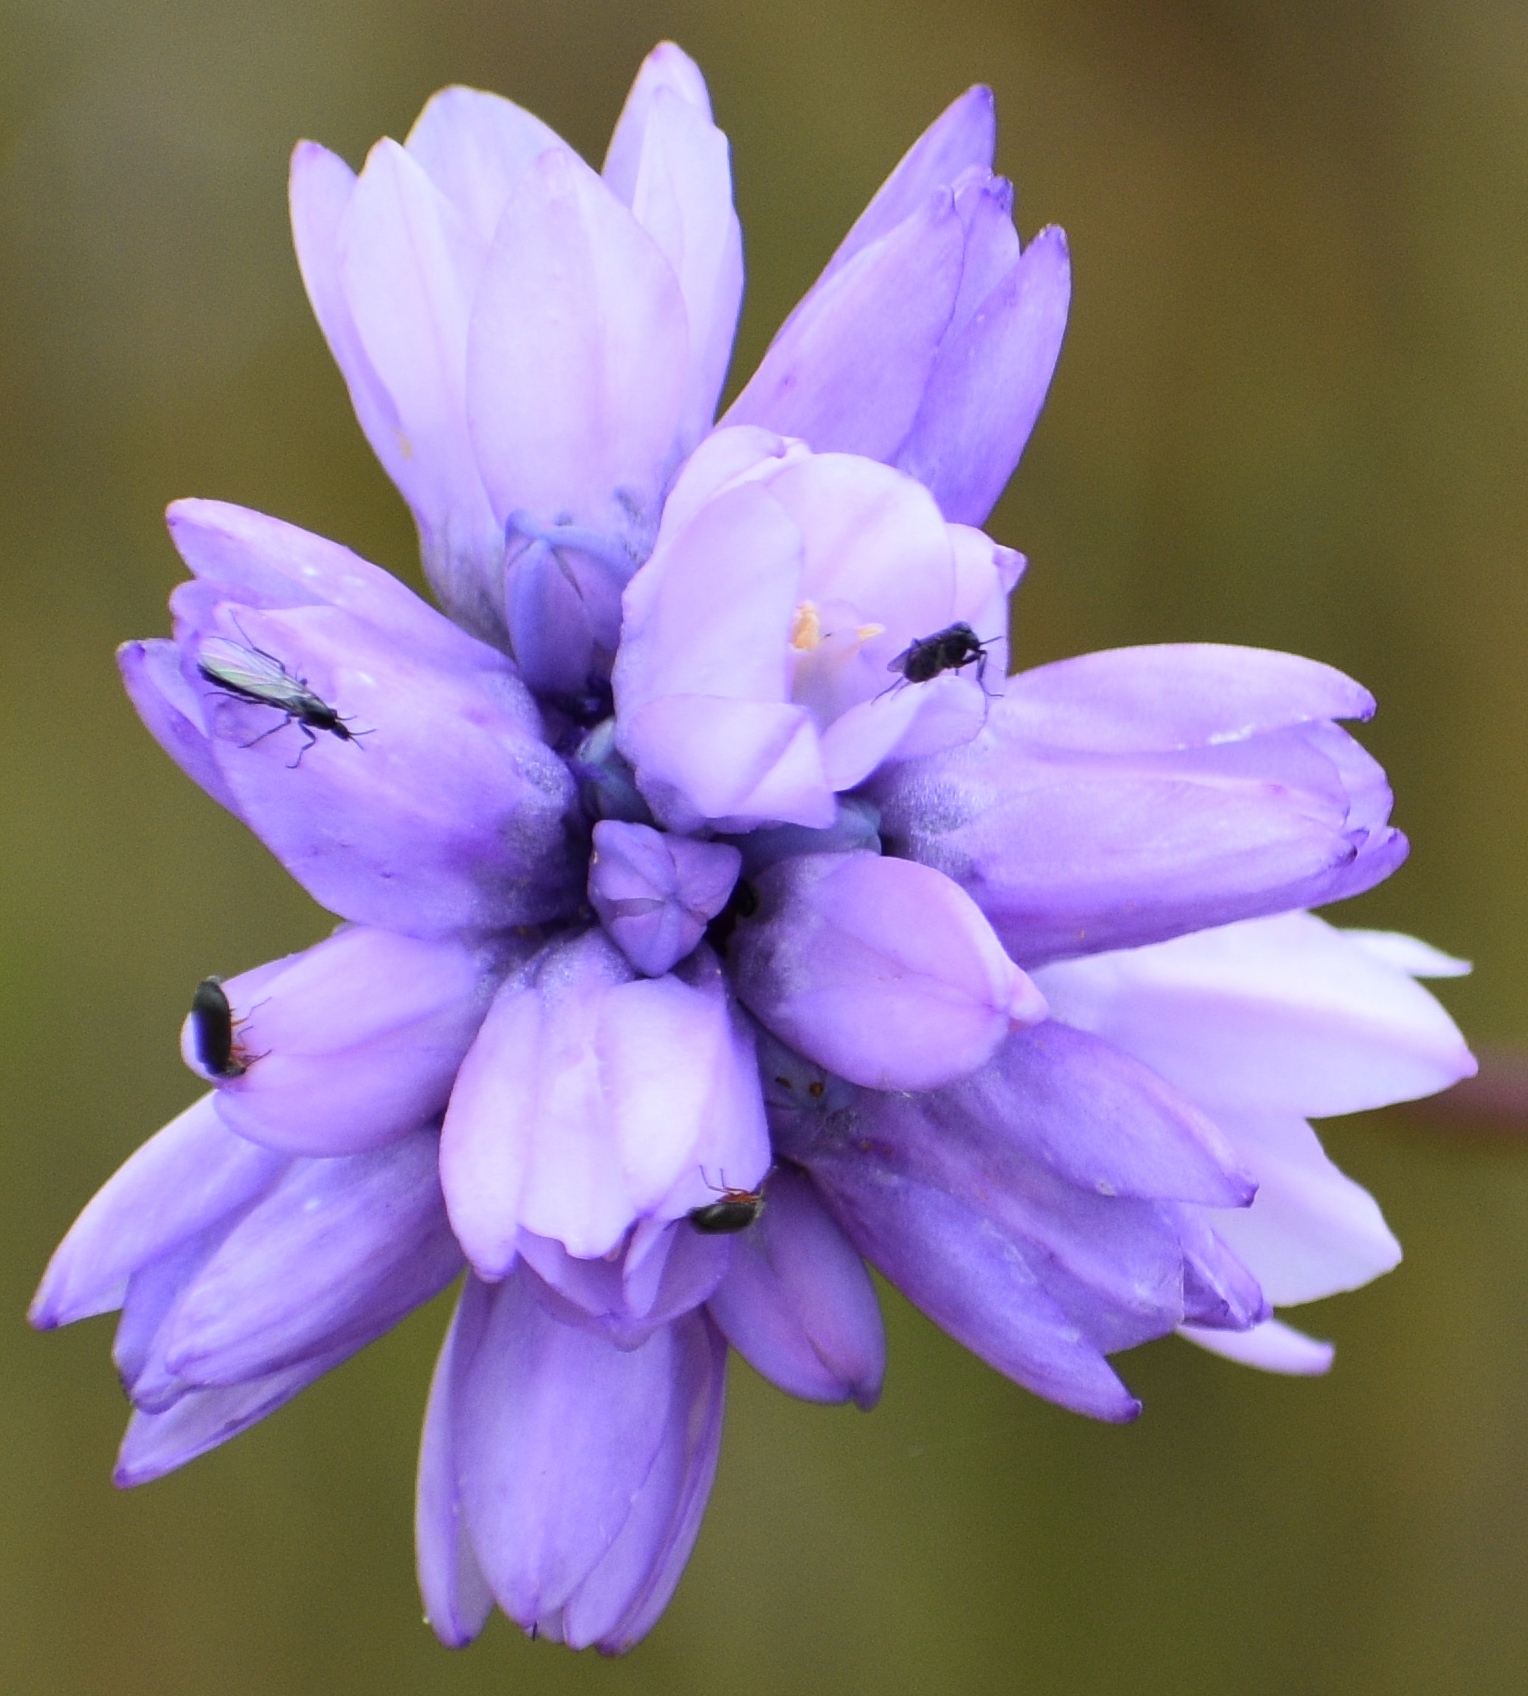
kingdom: Plantae
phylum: Tracheophyta
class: Liliopsida
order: Asparagales
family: Asparagaceae
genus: Dipterostemon
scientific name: Dipterostemon capitatus
